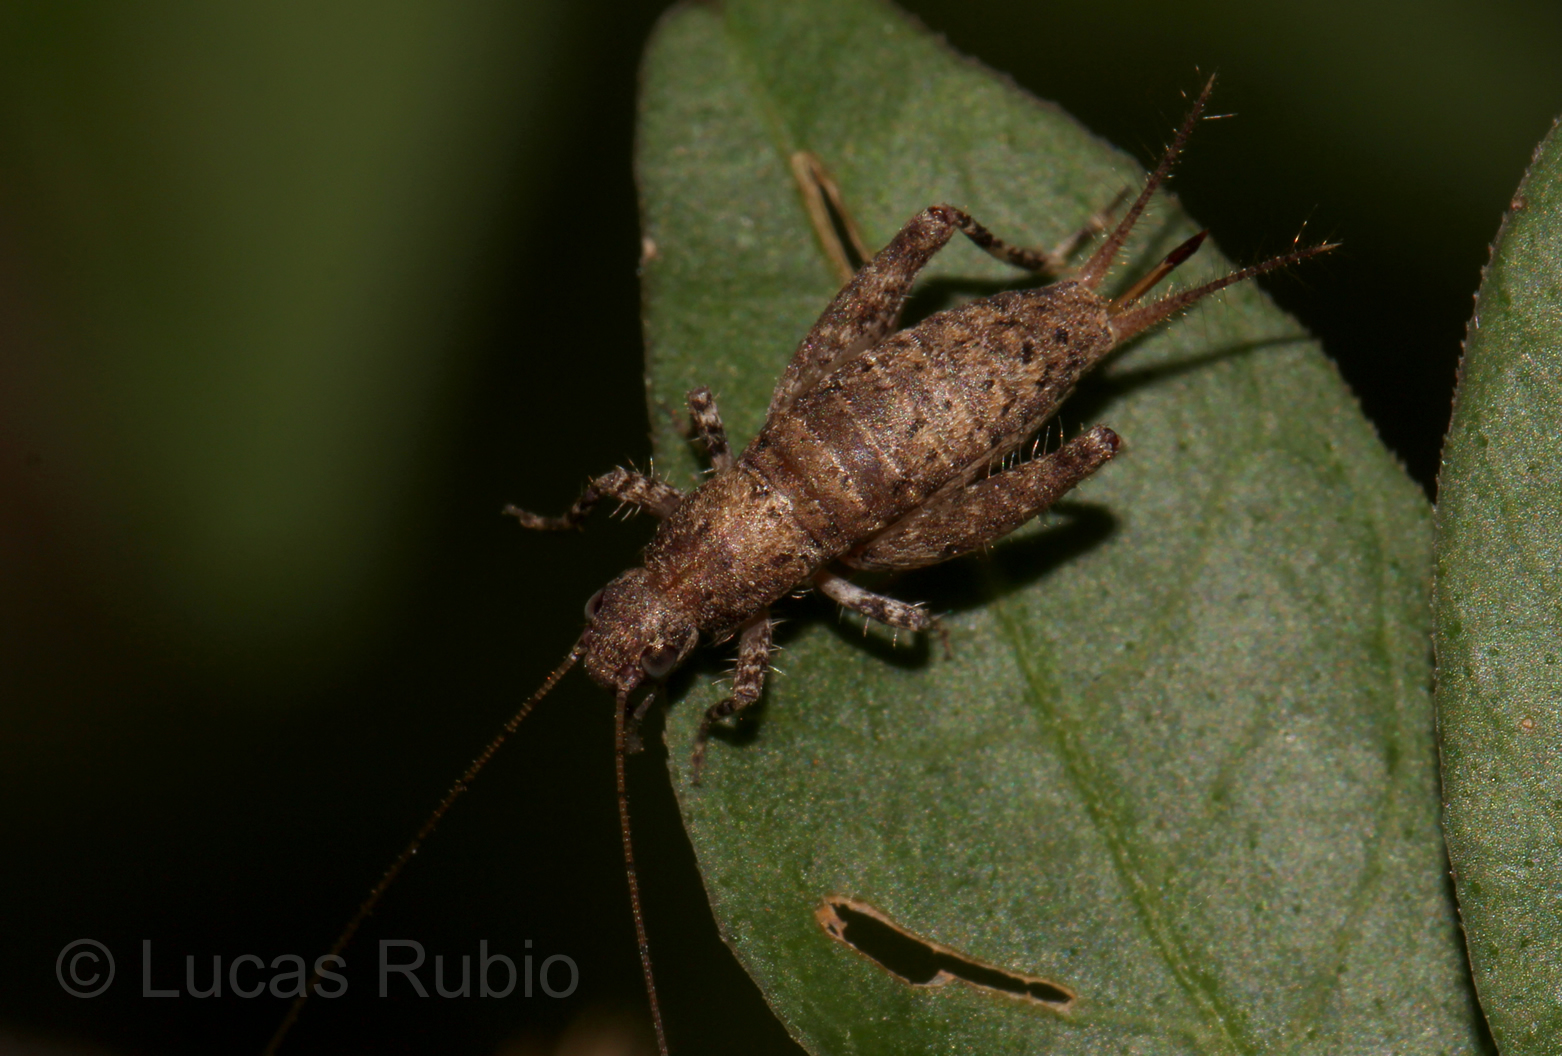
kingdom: Animalia
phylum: Arthropoda
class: Insecta
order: Orthoptera
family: Mogoplistidae
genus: Ornebius
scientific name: Ornebius alatus
